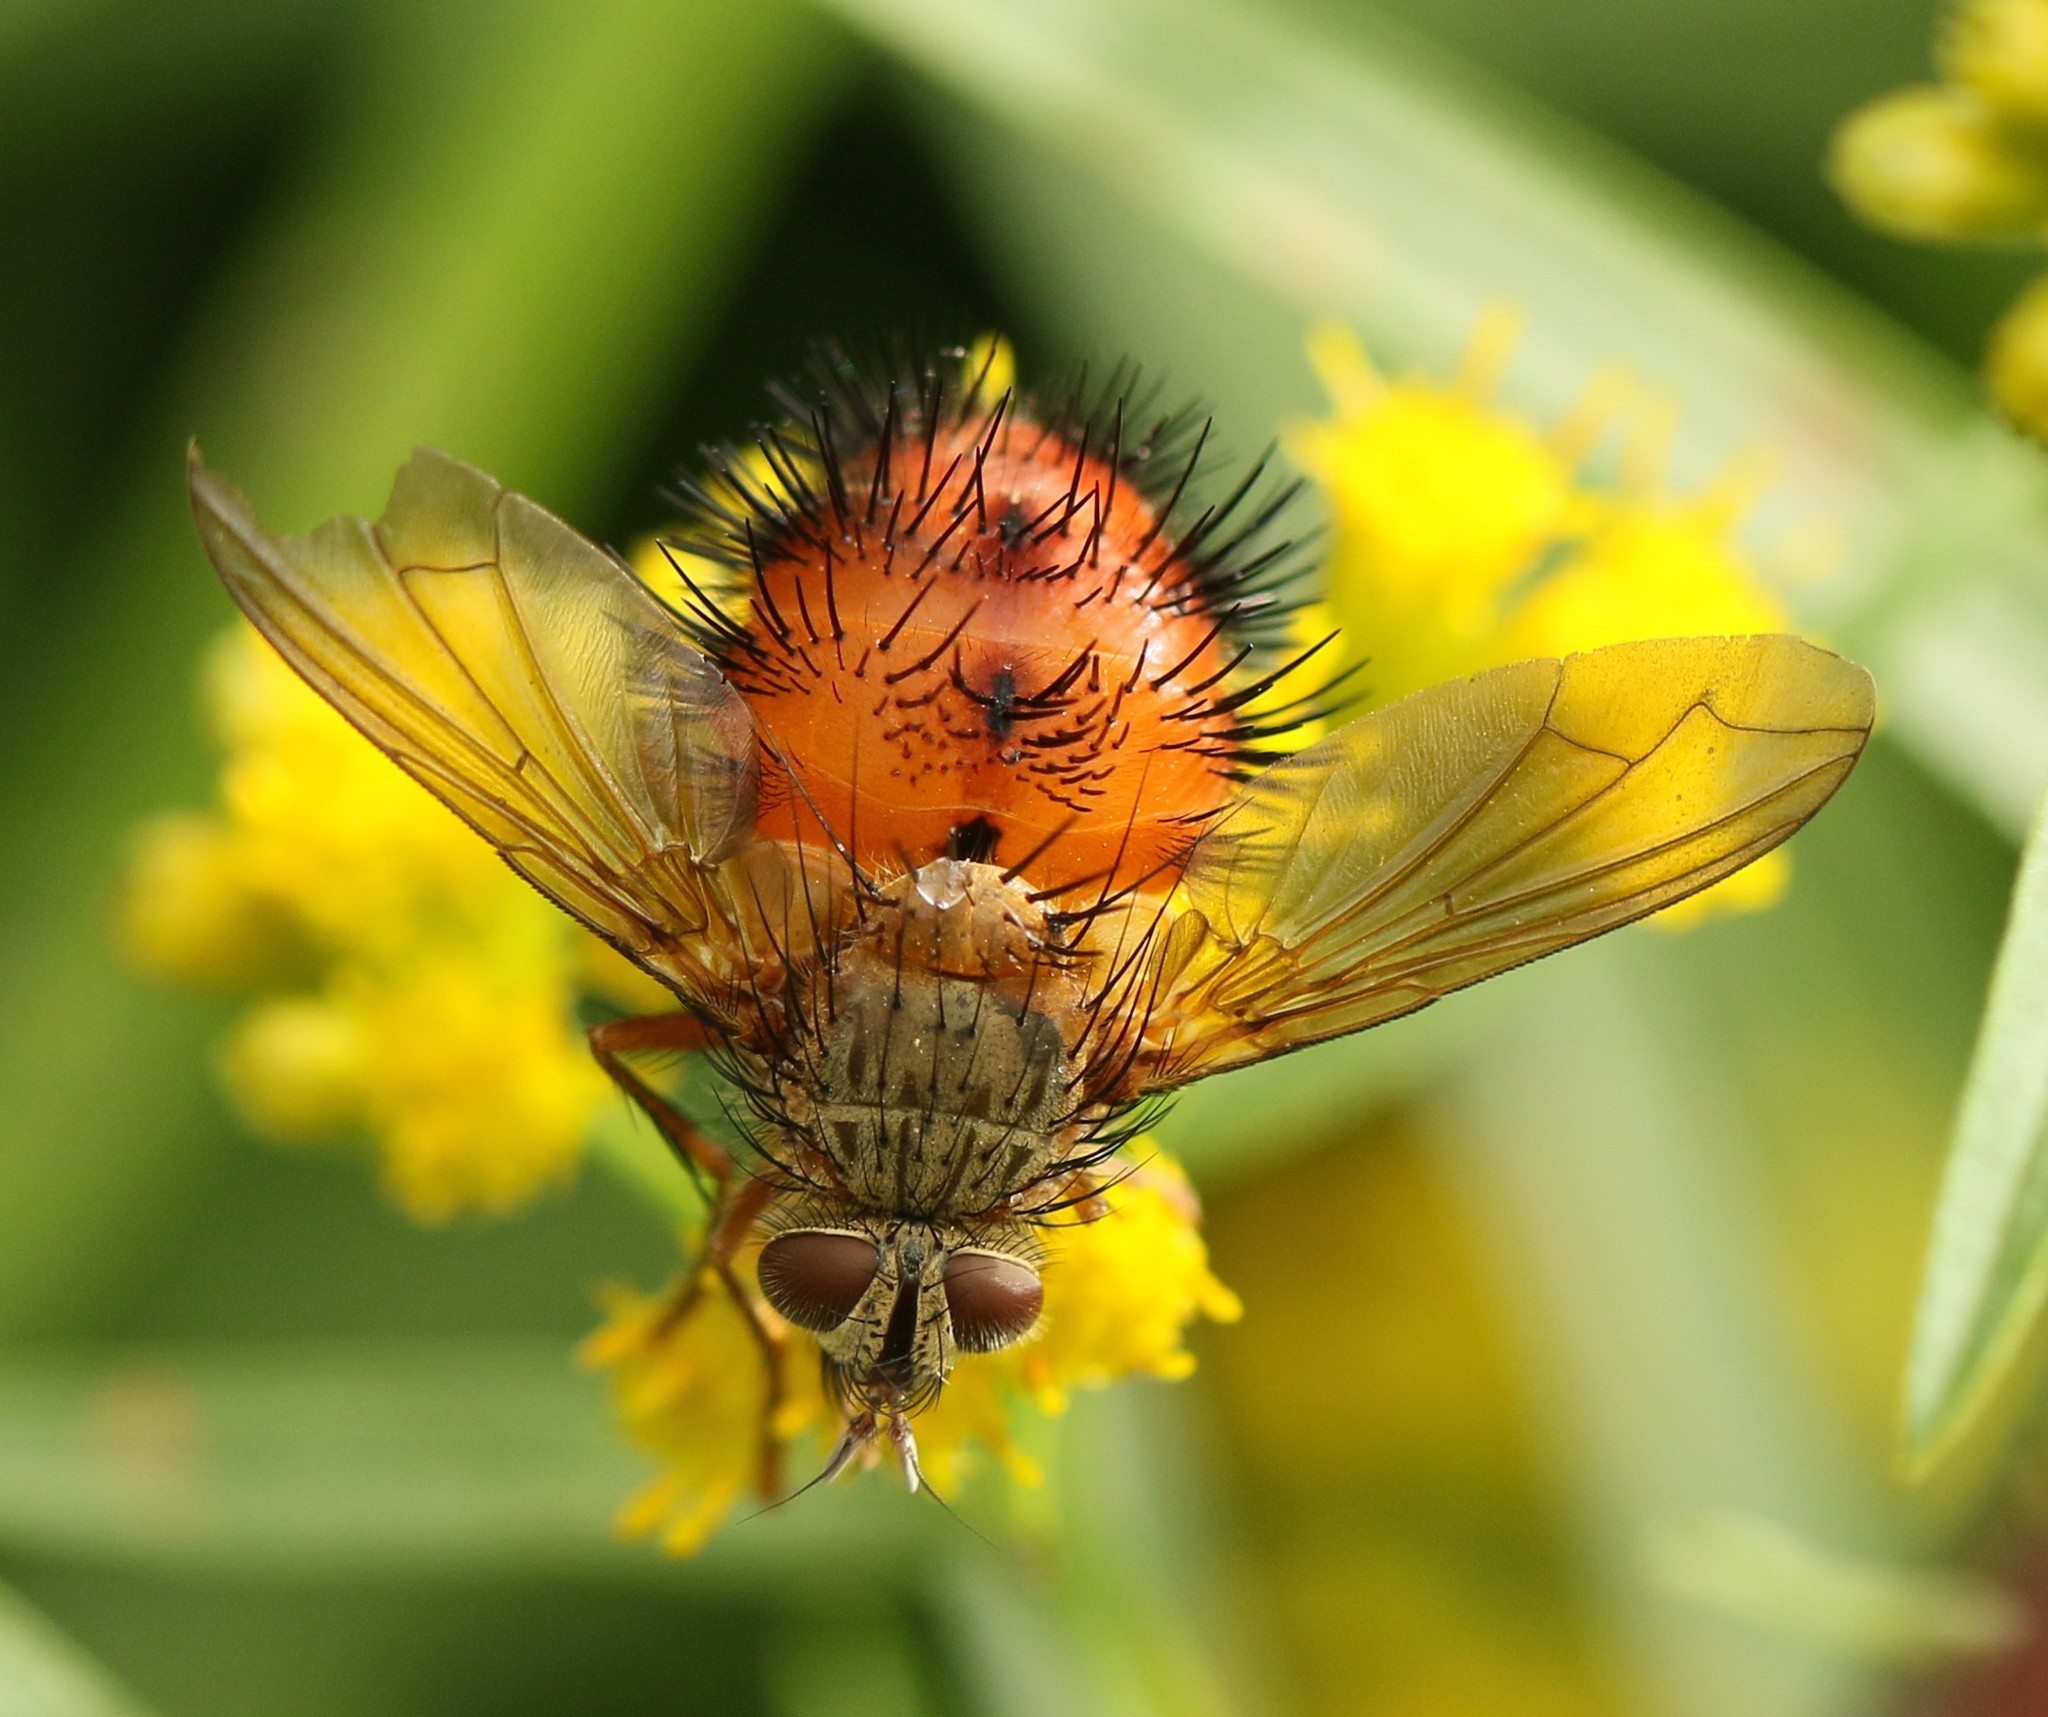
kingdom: Animalia
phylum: Arthropoda
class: Insecta
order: Diptera
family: Tachinidae
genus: Hystricia
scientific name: Hystricia abrupta
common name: Tomato bristle fly
